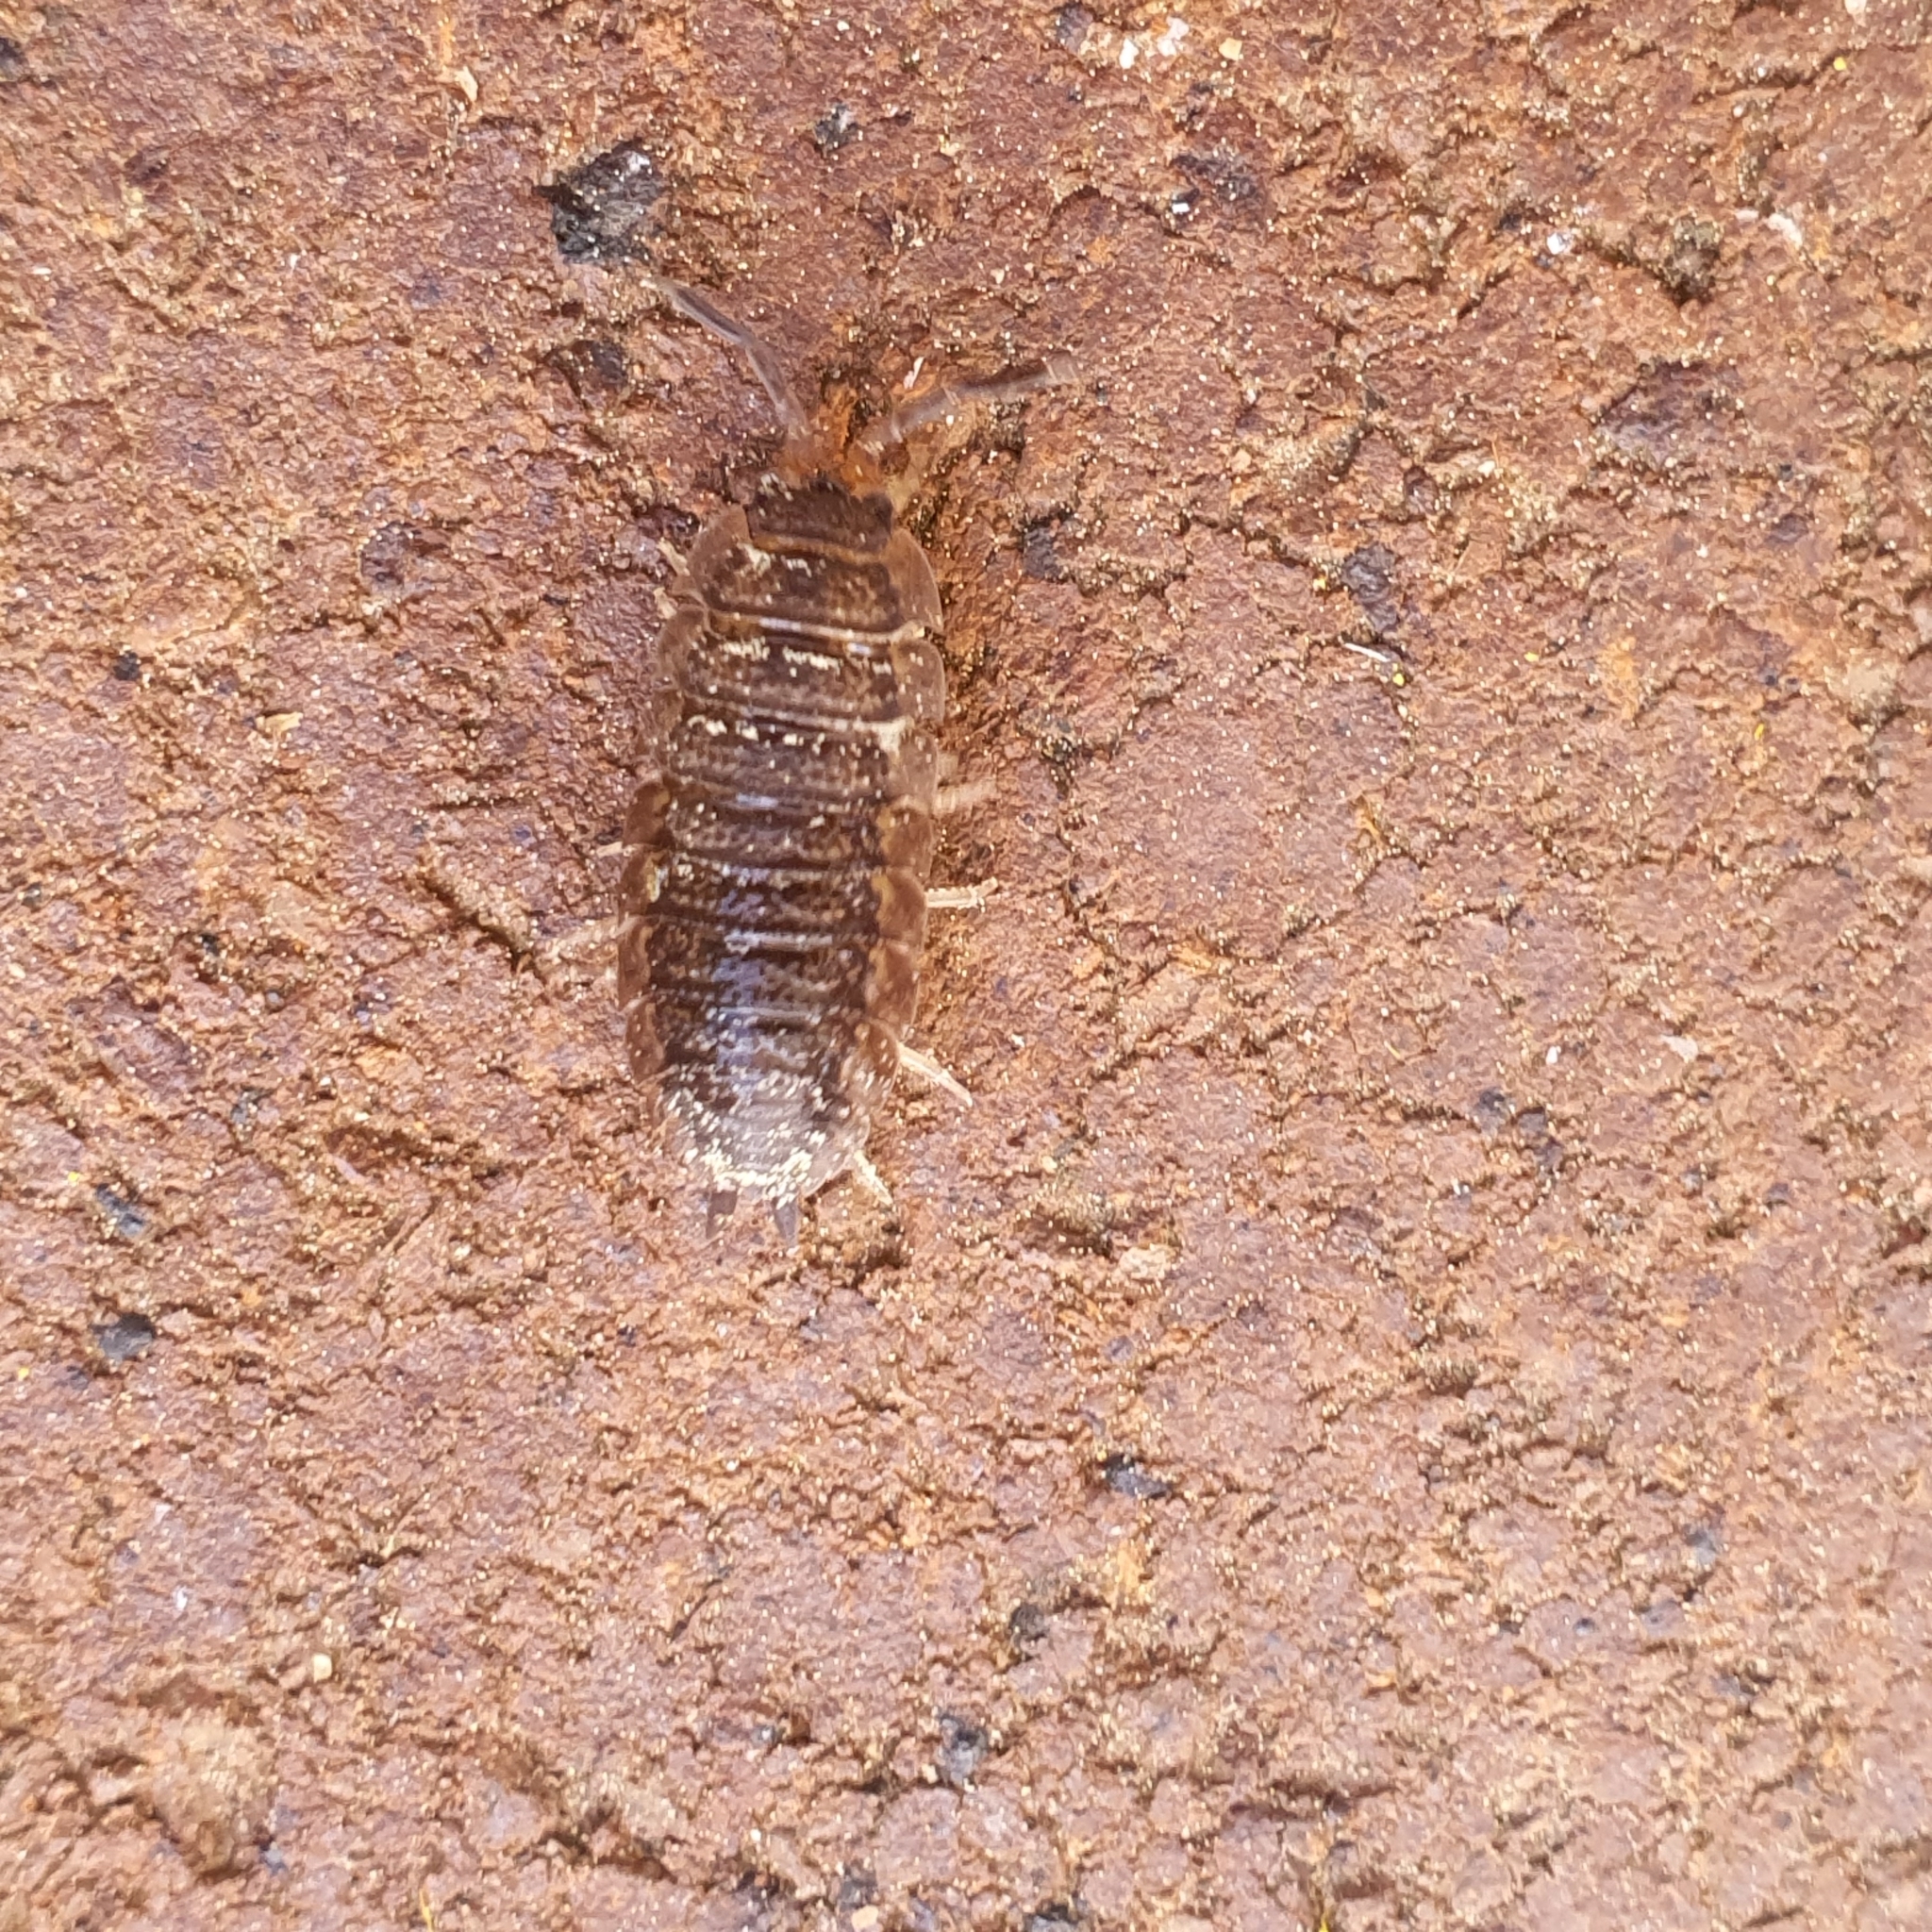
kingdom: Animalia
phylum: Arthropoda
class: Malacostraca
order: Isopoda
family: Porcellionidae
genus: Porcellio
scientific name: Porcellio scaber
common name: Common rough woodlouse
